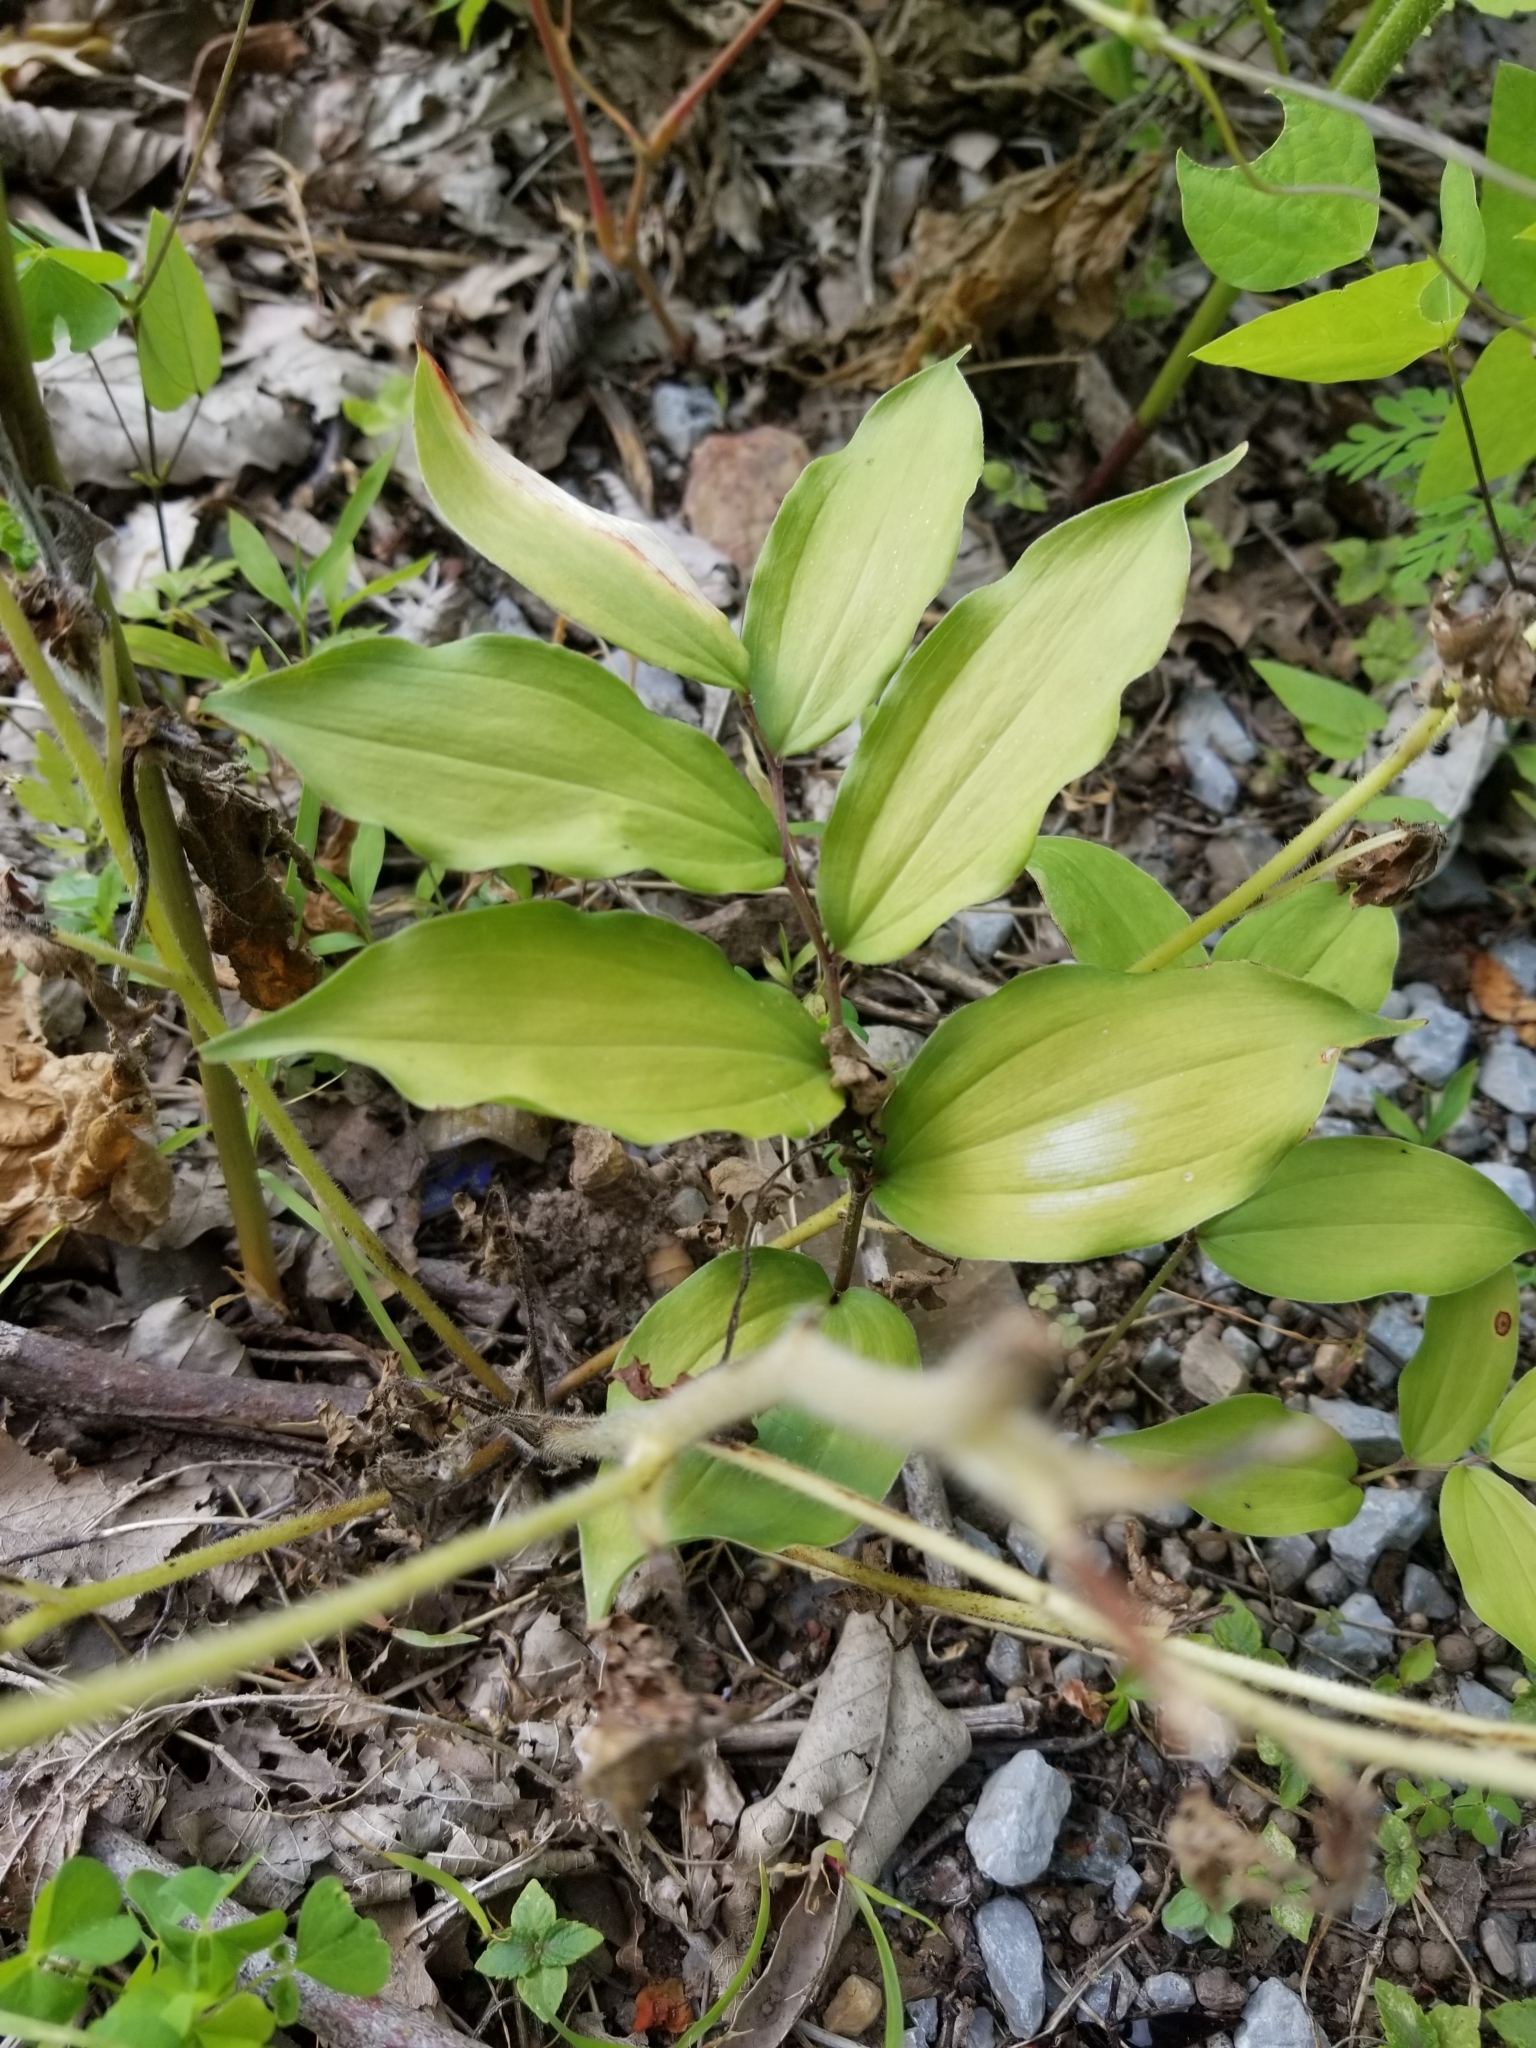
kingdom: Plantae
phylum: Tracheophyta
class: Liliopsida
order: Asparagales
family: Asparagaceae
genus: Maianthemum
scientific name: Maianthemum racemosum
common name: False spikenard
